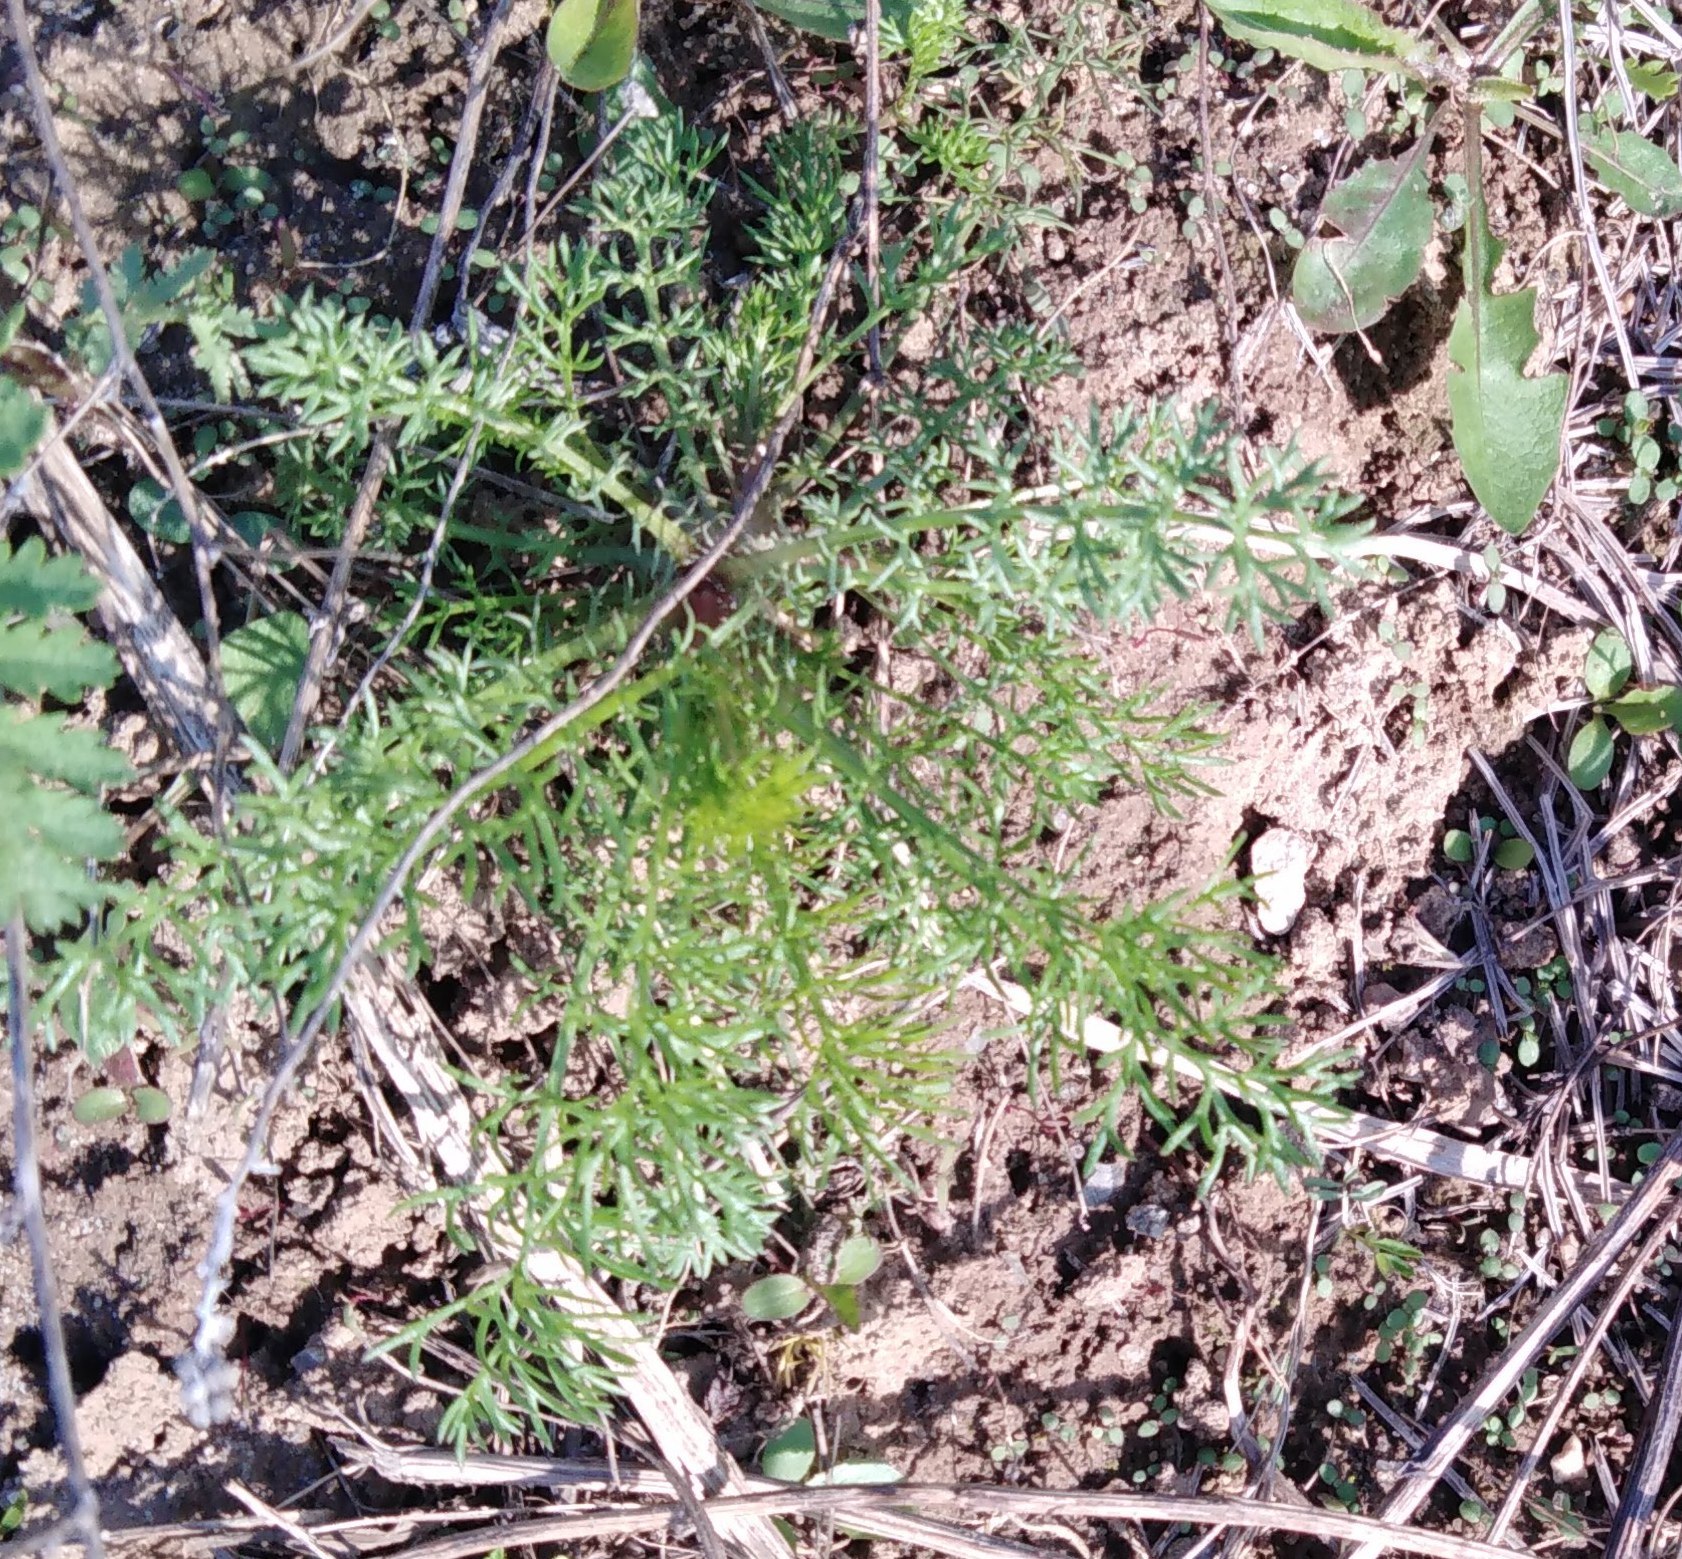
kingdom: Plantae
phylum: Tracheophyta
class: Magnoliopsida
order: Asterales
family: Asteraceae
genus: Tripleurospermum
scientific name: Tripleurospermum inodorum
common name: Scentless mayweed
